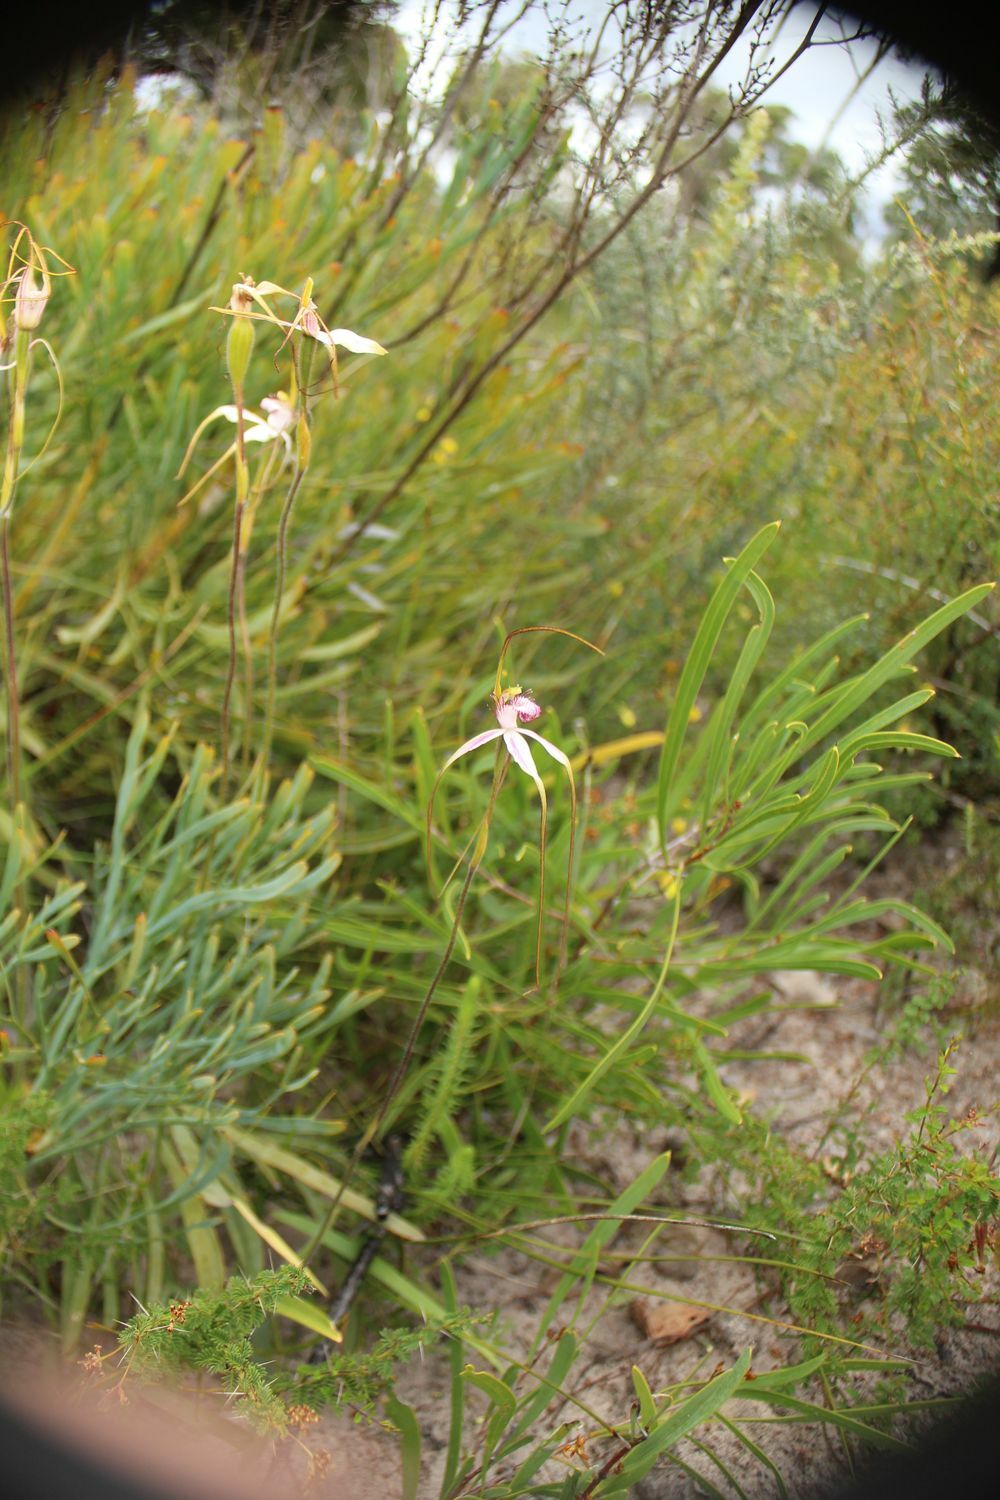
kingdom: Plantae
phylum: Tracheophyta
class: Liliopsida
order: Asparagales
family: Orchidaceae
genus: Caladenia
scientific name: Caladenia longicauda
